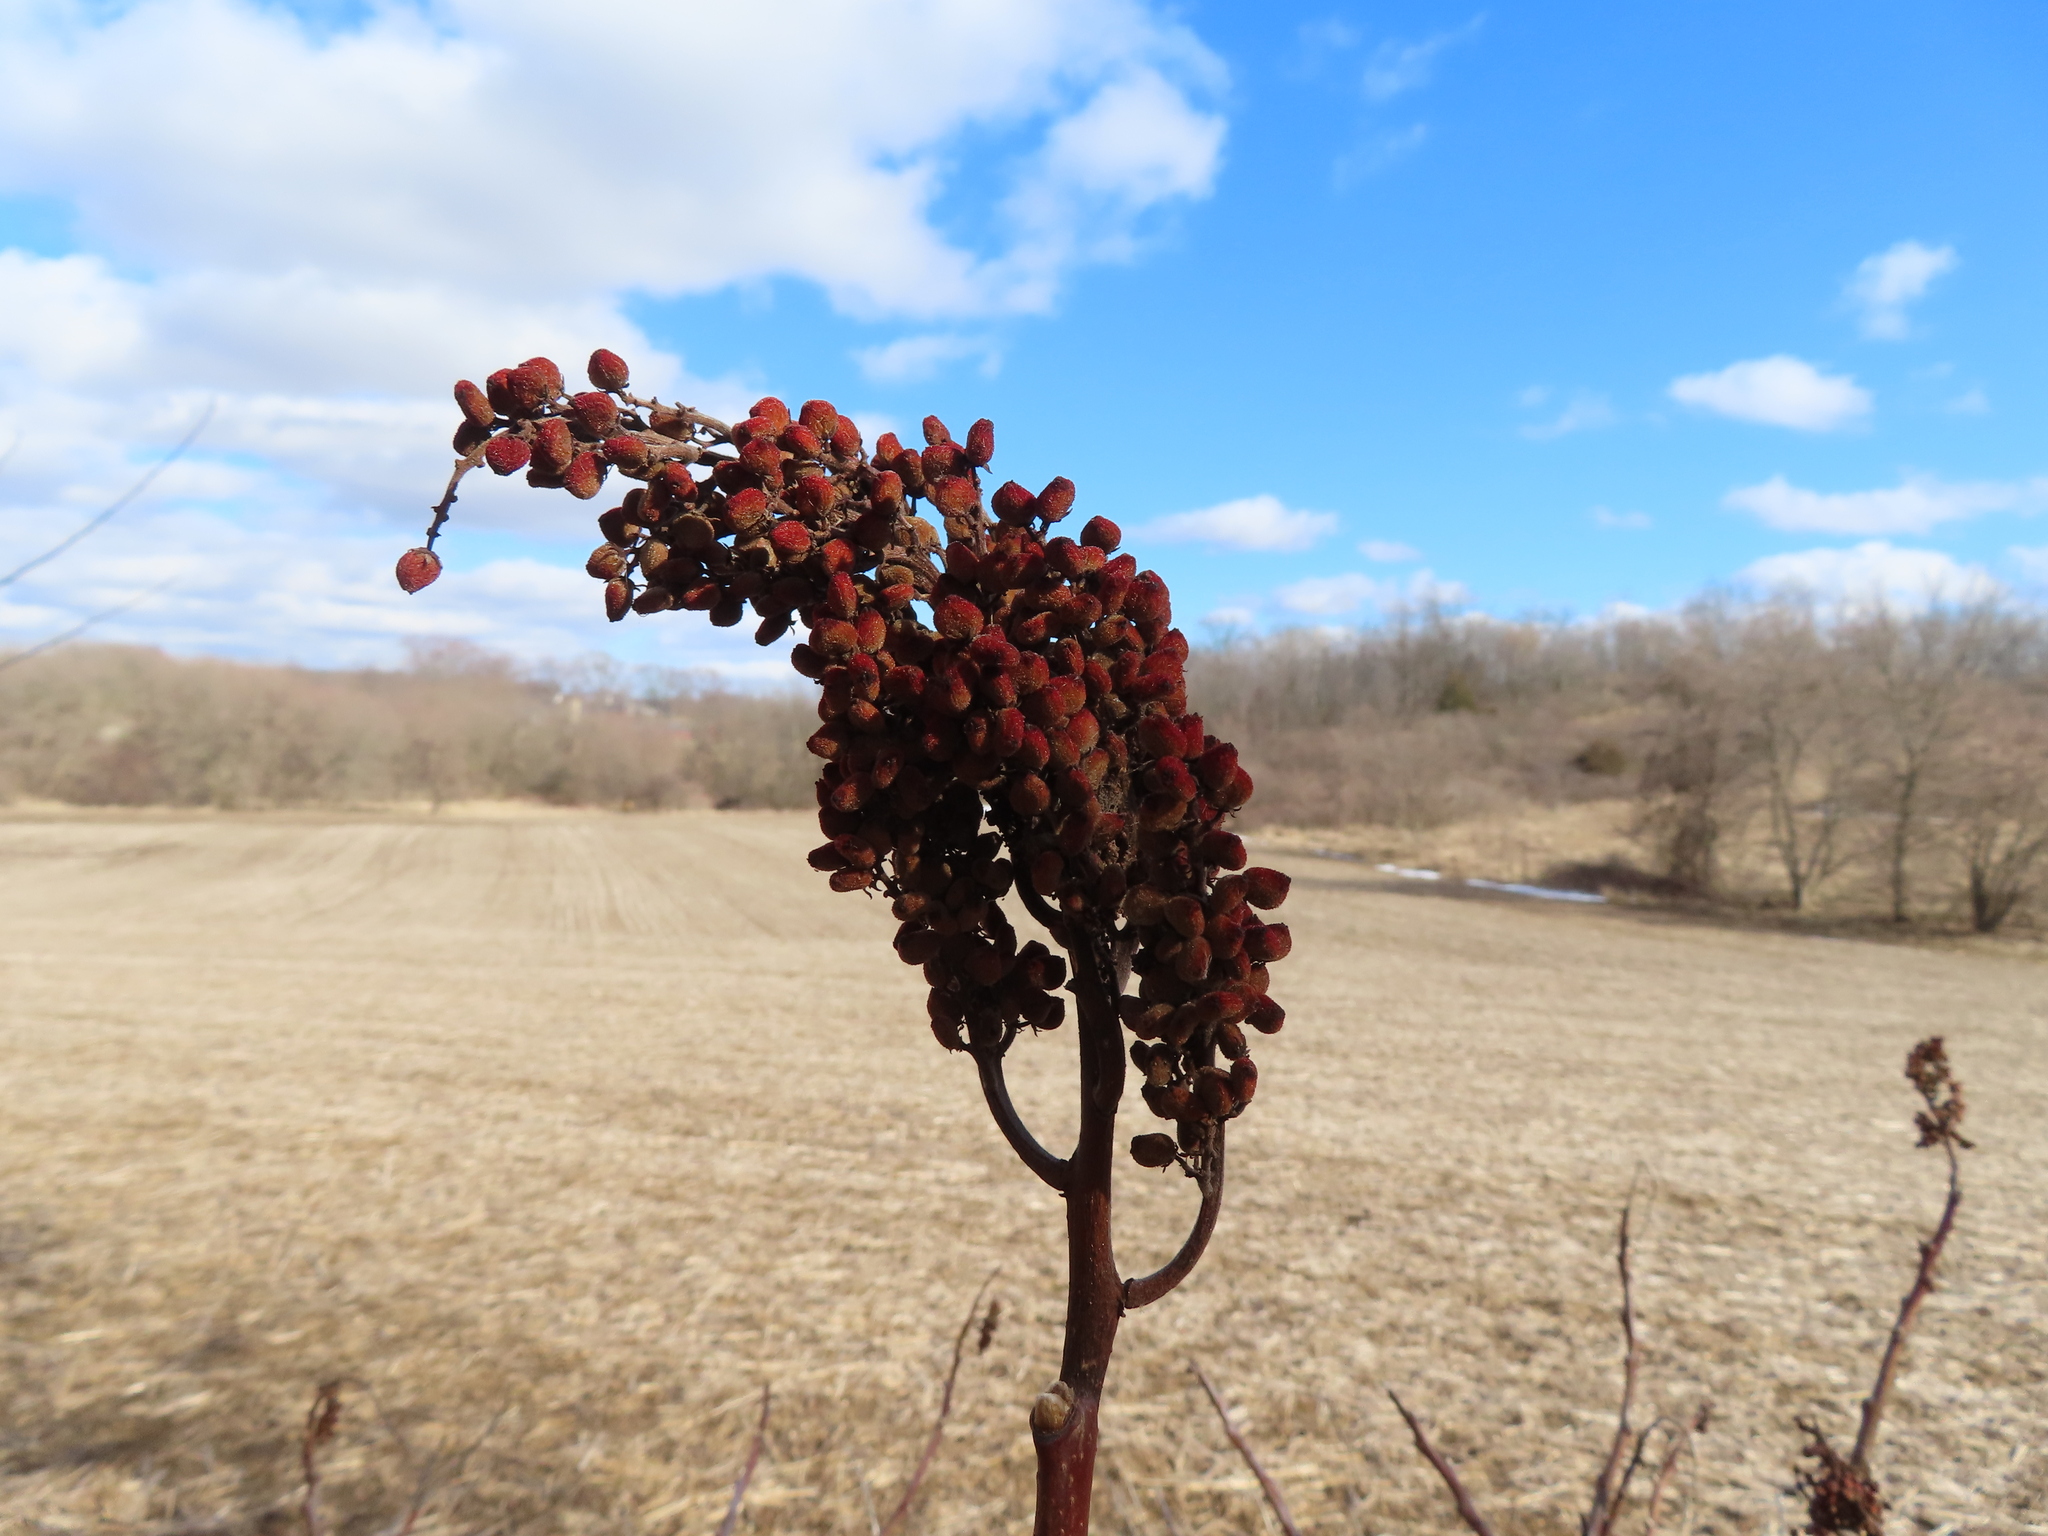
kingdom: Plantae
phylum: Tracheophyta
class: Magnoliopsida
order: Sapindales
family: Anacardiaceae
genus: Rhus
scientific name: Rhus glabra
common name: Scarlet sumac
